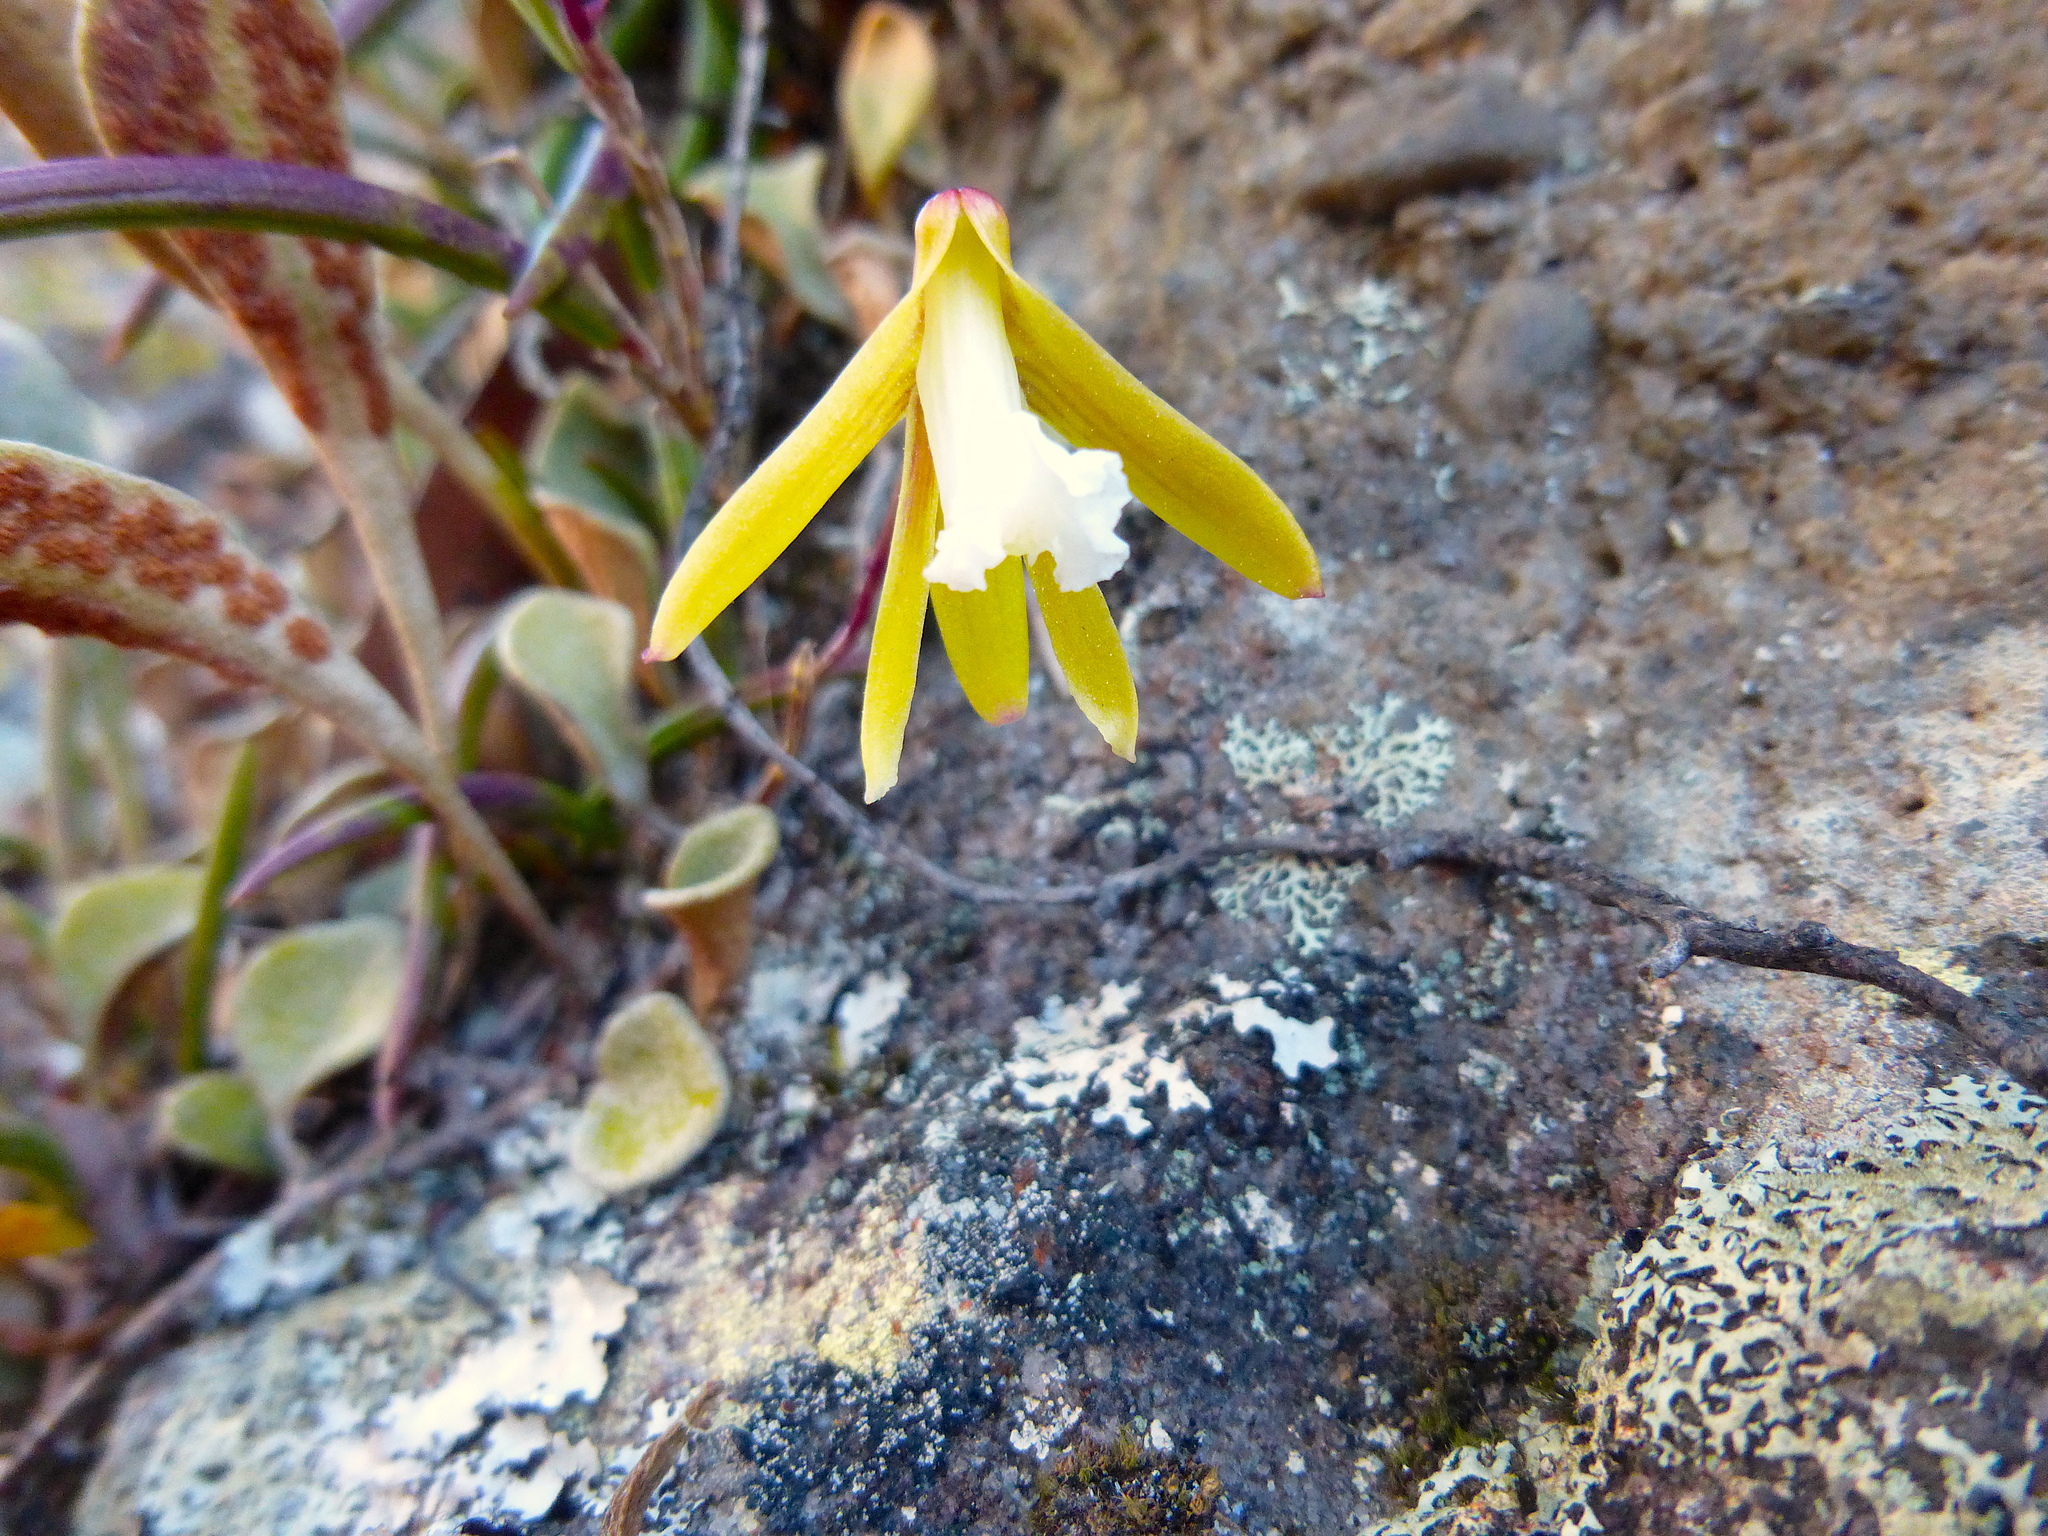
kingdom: Plantae
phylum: Tracheophyta
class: Liliopsida
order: Asparagales
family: Orchidaceae
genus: Dendrobium
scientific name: Dendrobium striolatum
